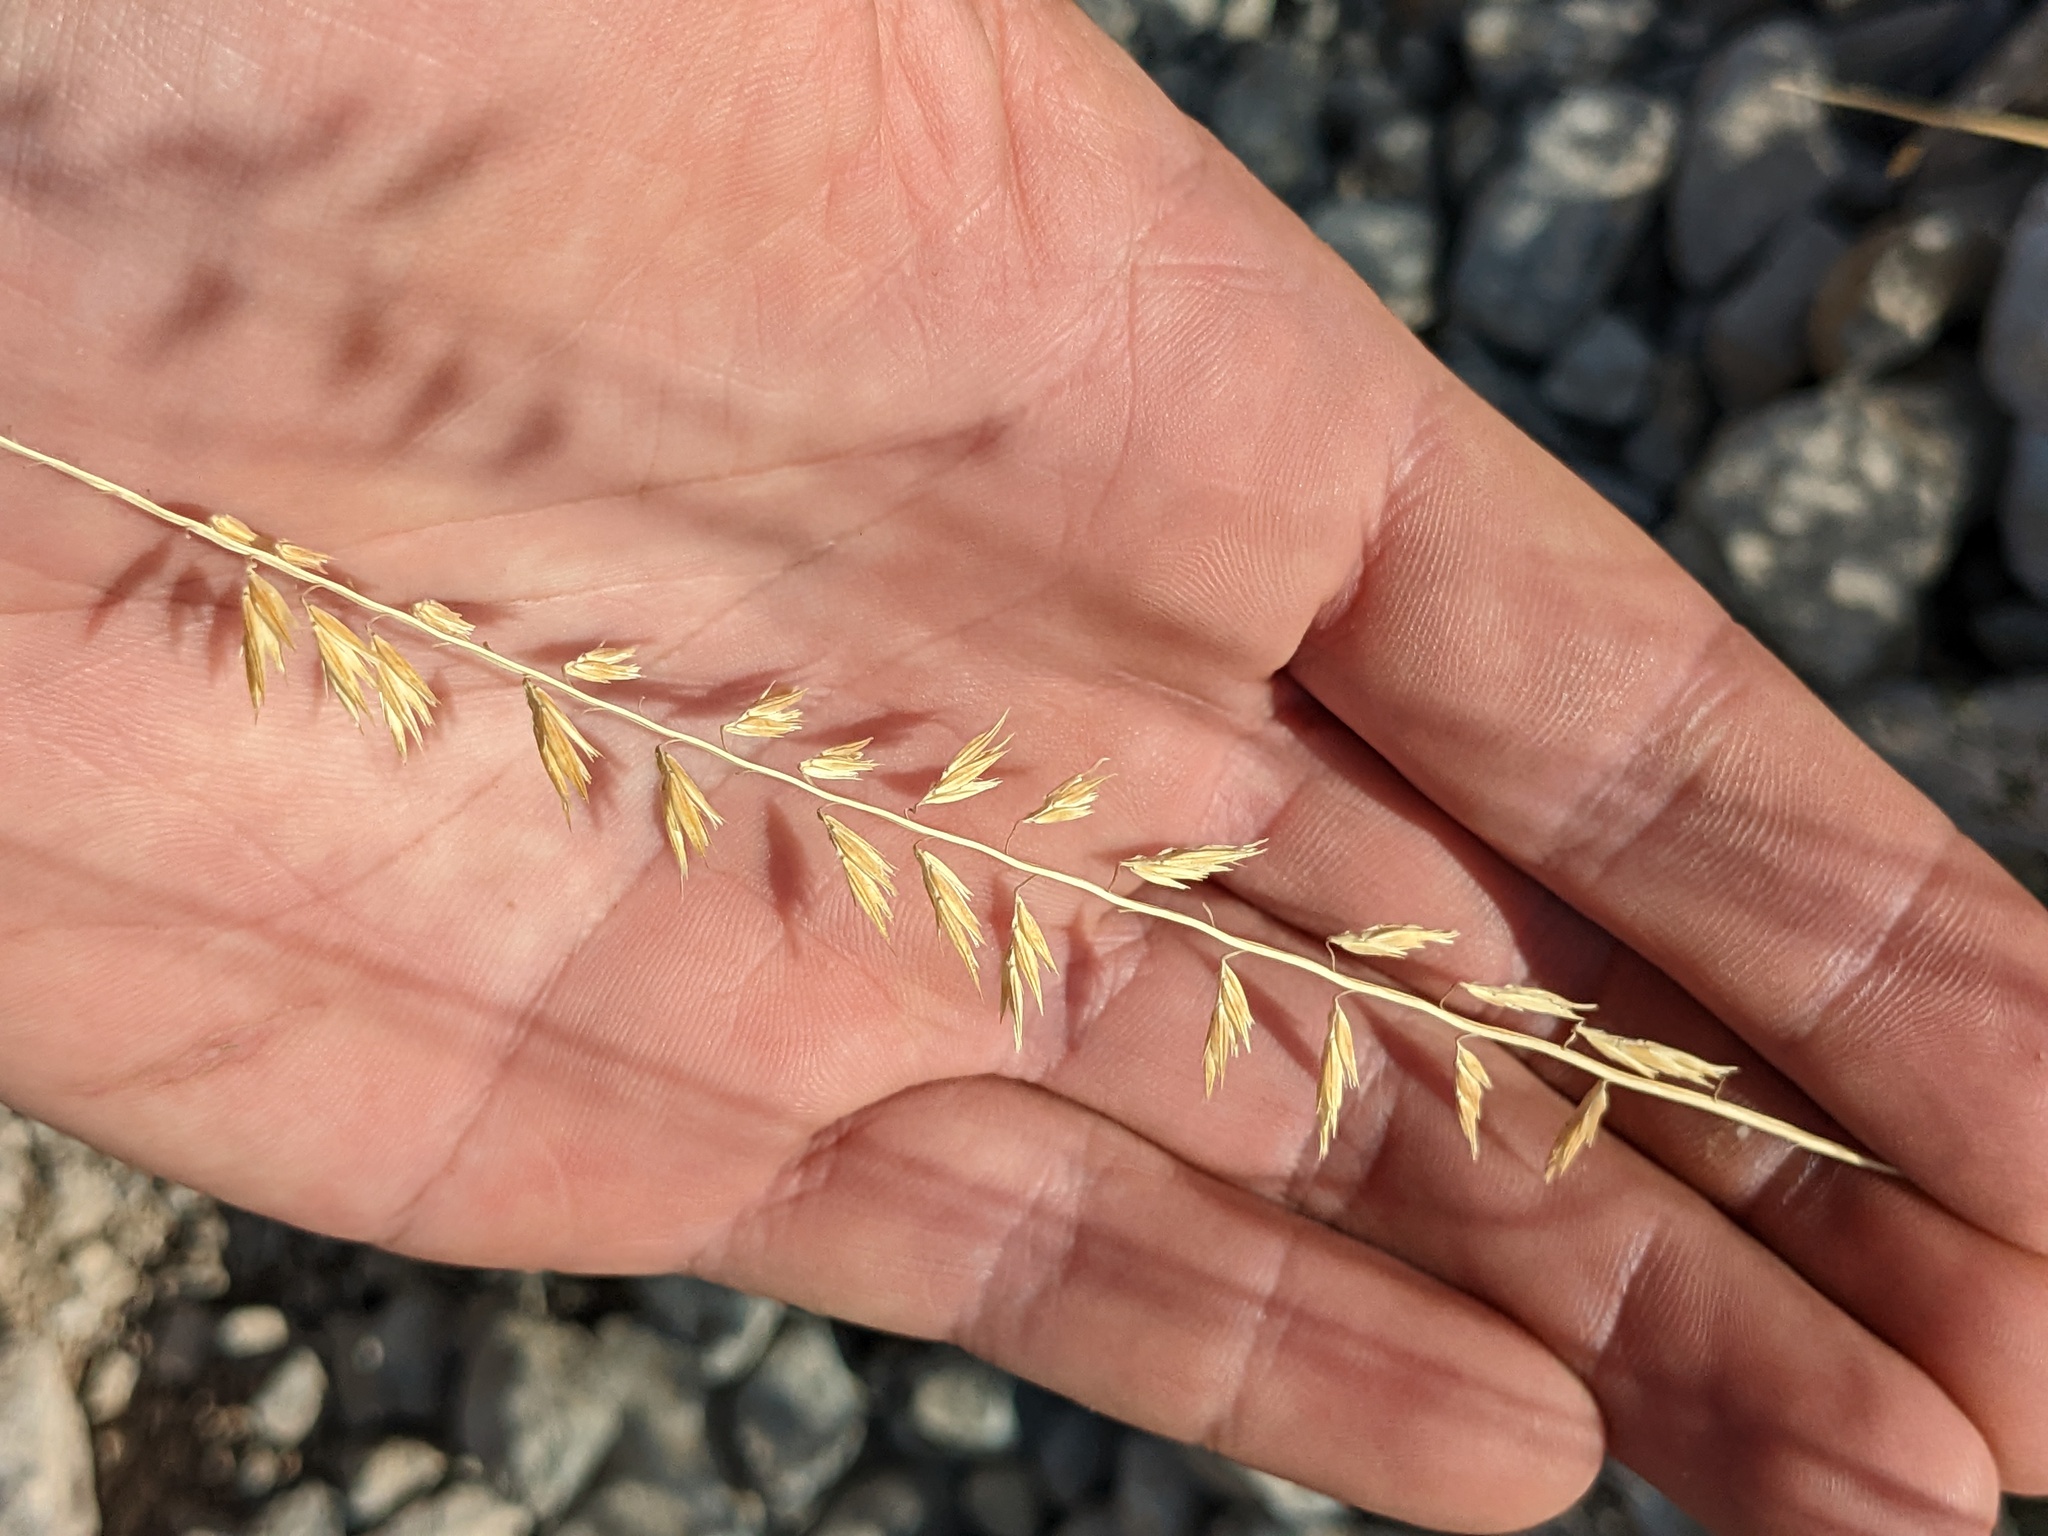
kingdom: Plantae
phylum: Tracheophyta
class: Liliopsida
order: Poales
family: Poaceae
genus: Bouteloua
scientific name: Bouteloua curtipendula
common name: Side-oats grama
